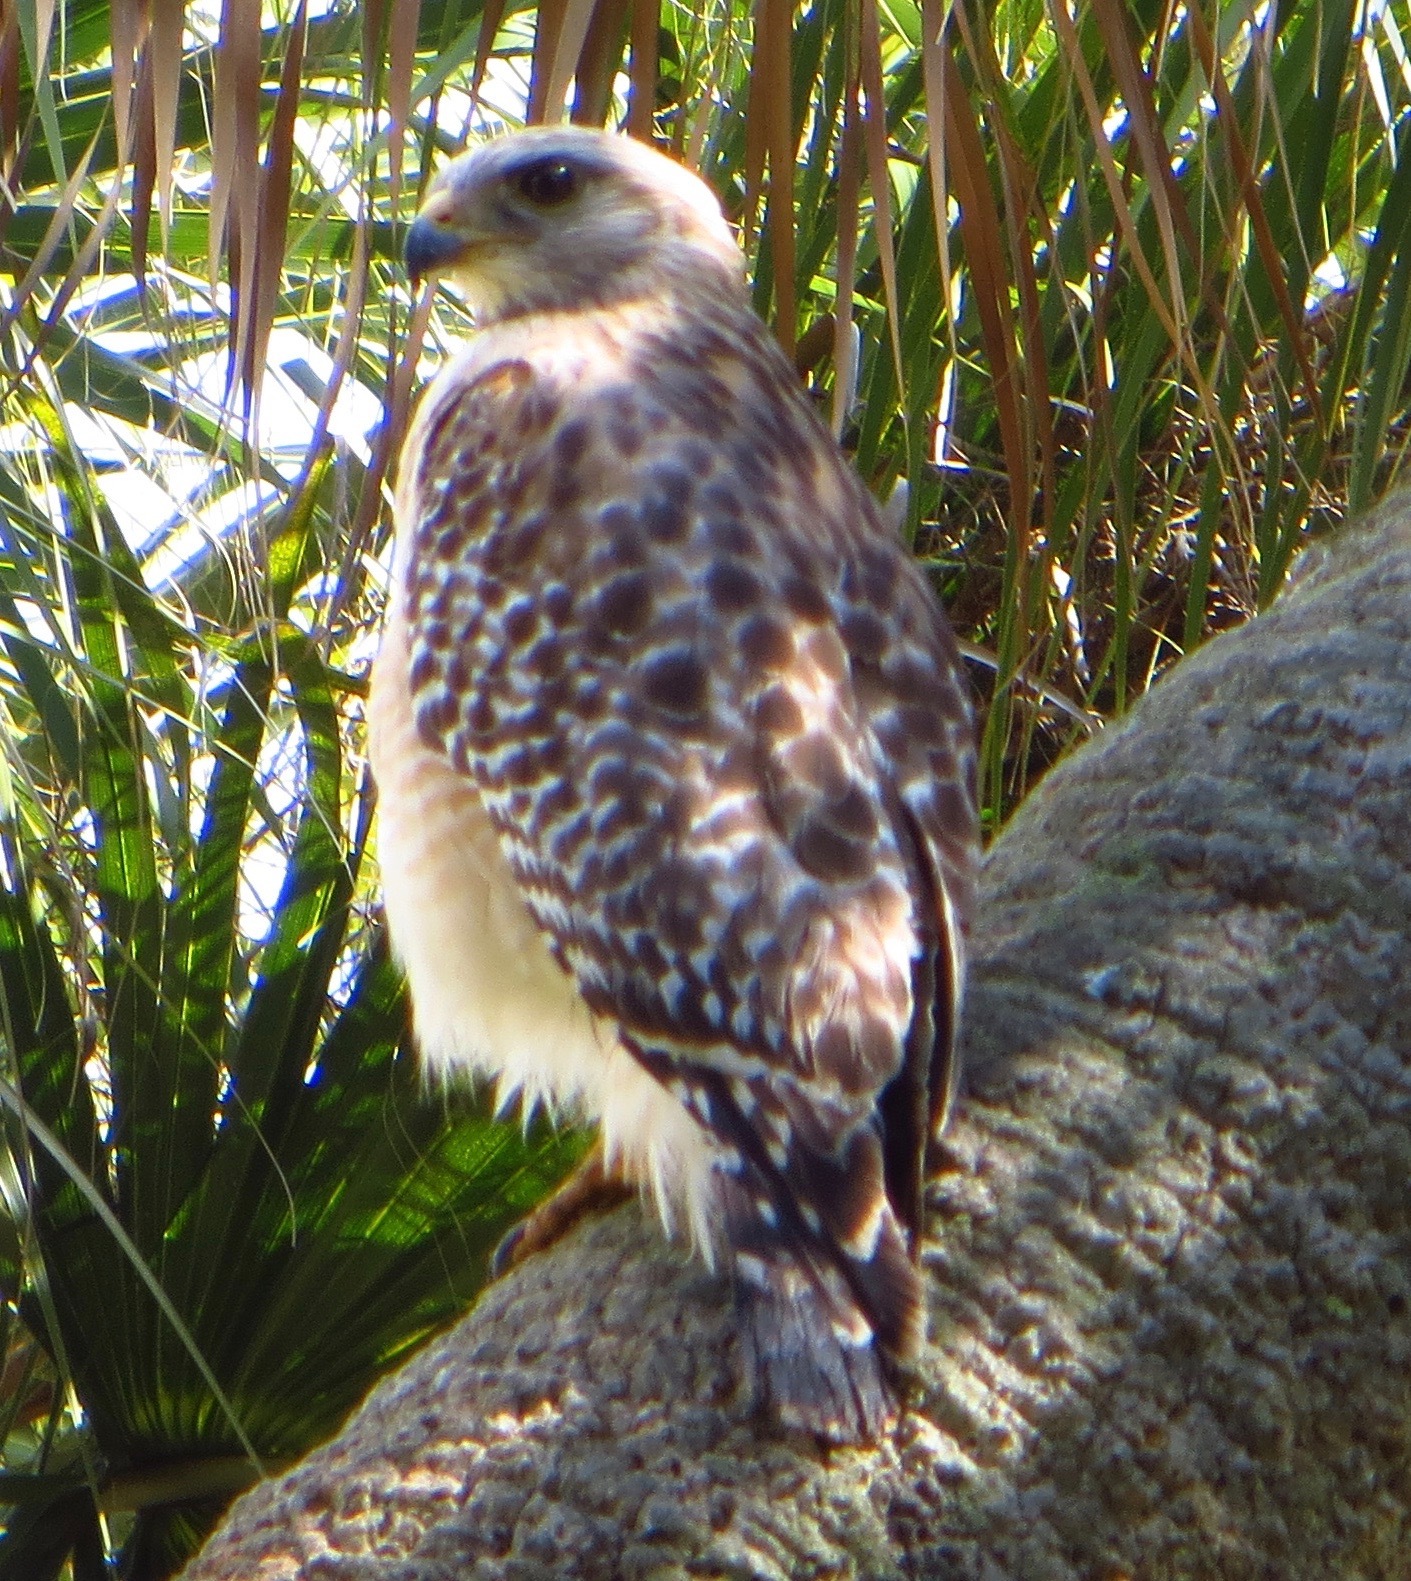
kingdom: Animalia
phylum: Chordata
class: Aves
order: Accipitriformes
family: Accipitridae
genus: Buteo
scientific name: Buteo lineatus
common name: Red-shouldered hawk
